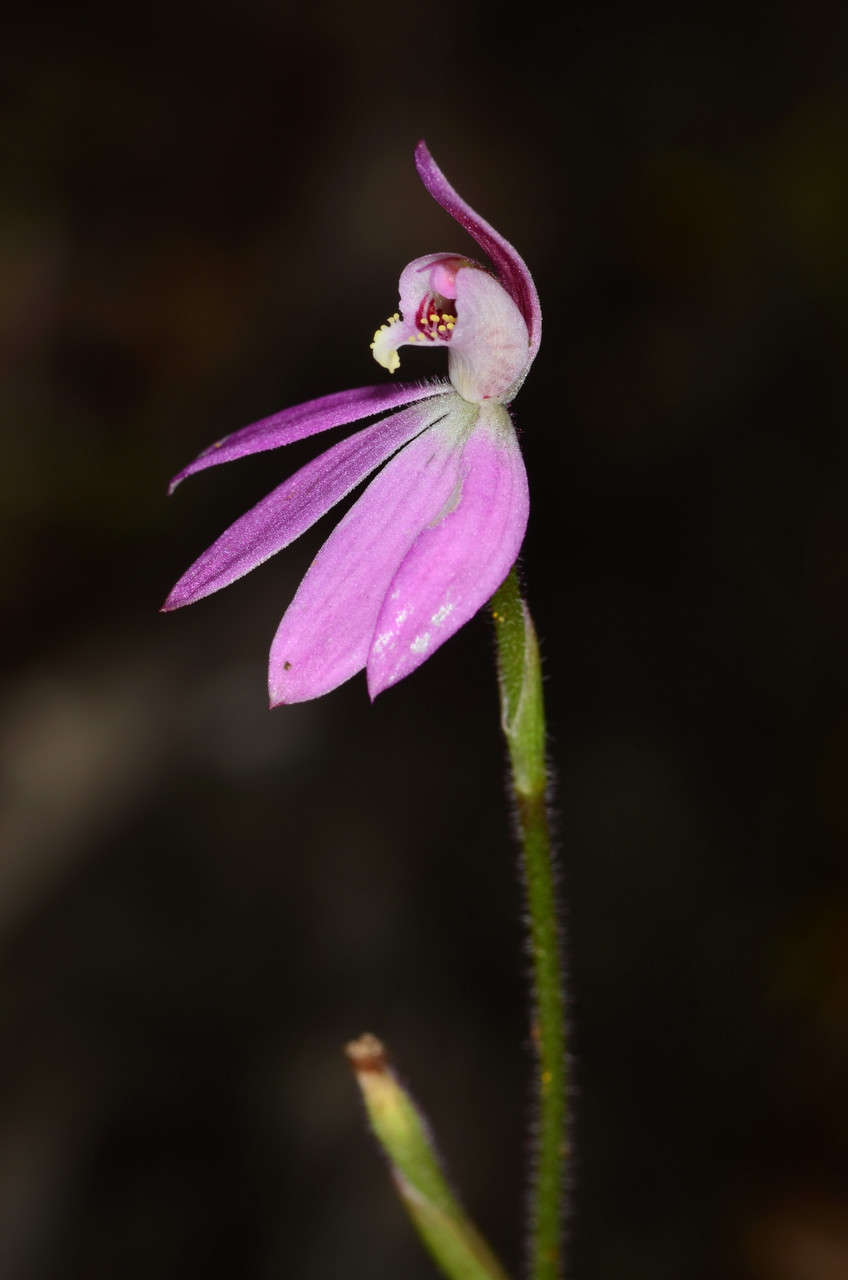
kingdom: Plantae
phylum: Tracheophyta
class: Liliopsida
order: Asparagales
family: Orchidaceae
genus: Caladenia
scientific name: Caladenia carnea
